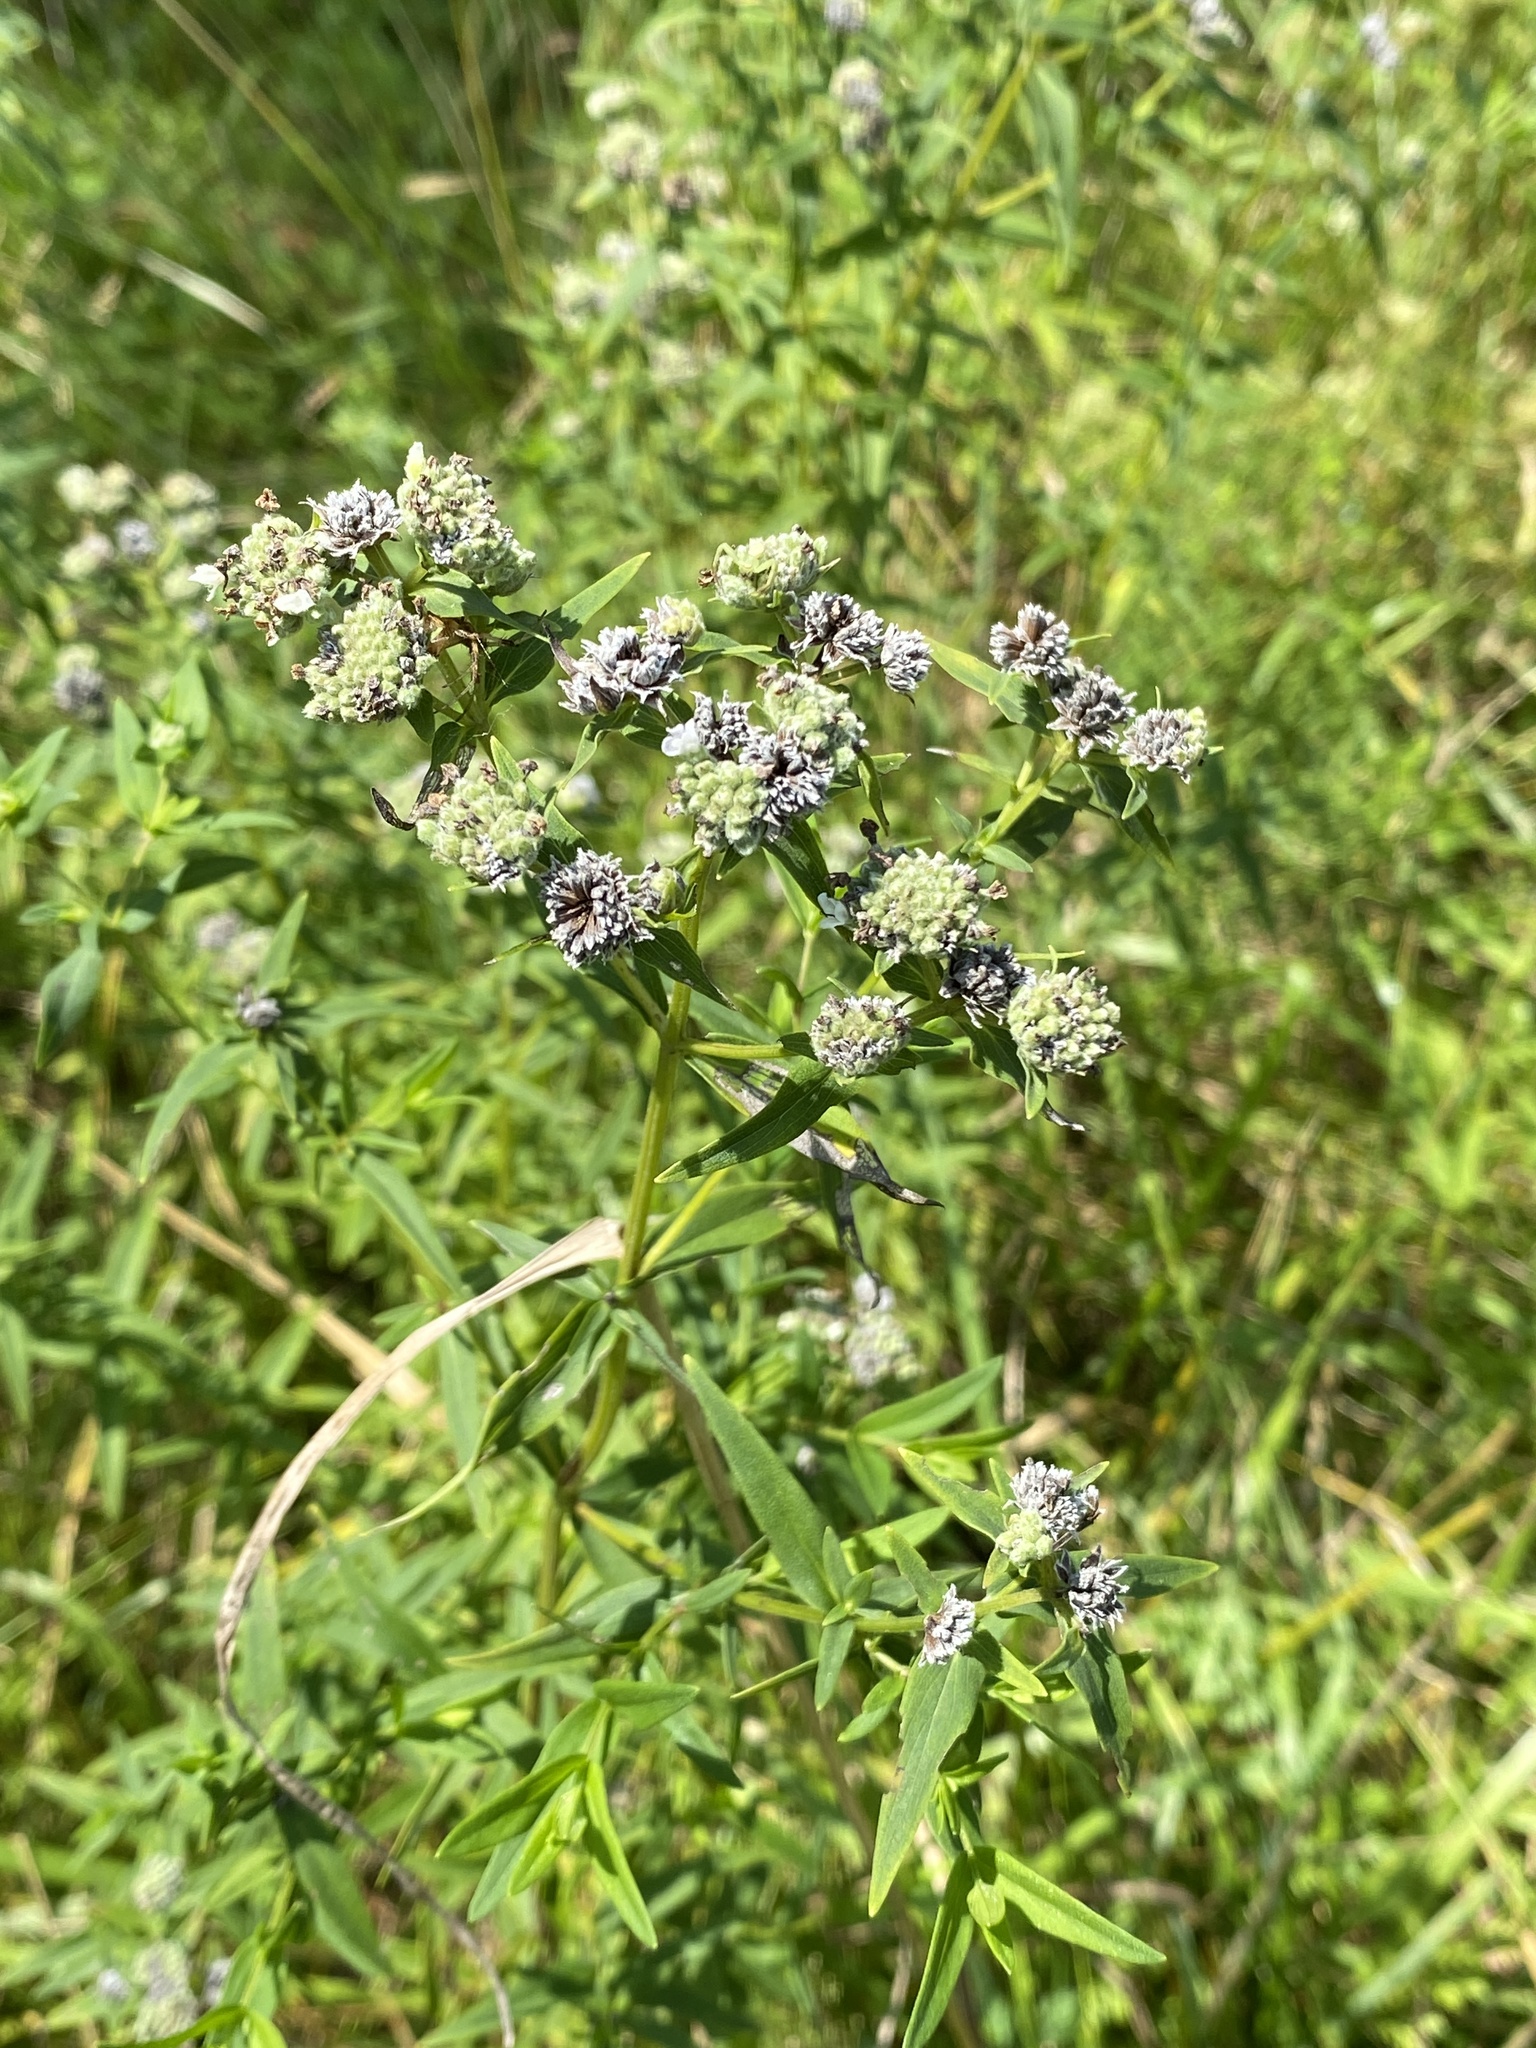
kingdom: Plantae
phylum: Tracheophyta
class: Magnoliopsida
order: Lamiales
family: Lamiaceae
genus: Pycnanthemum
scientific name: Pycnanthemum virginianum
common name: Virginia mountain-mint
